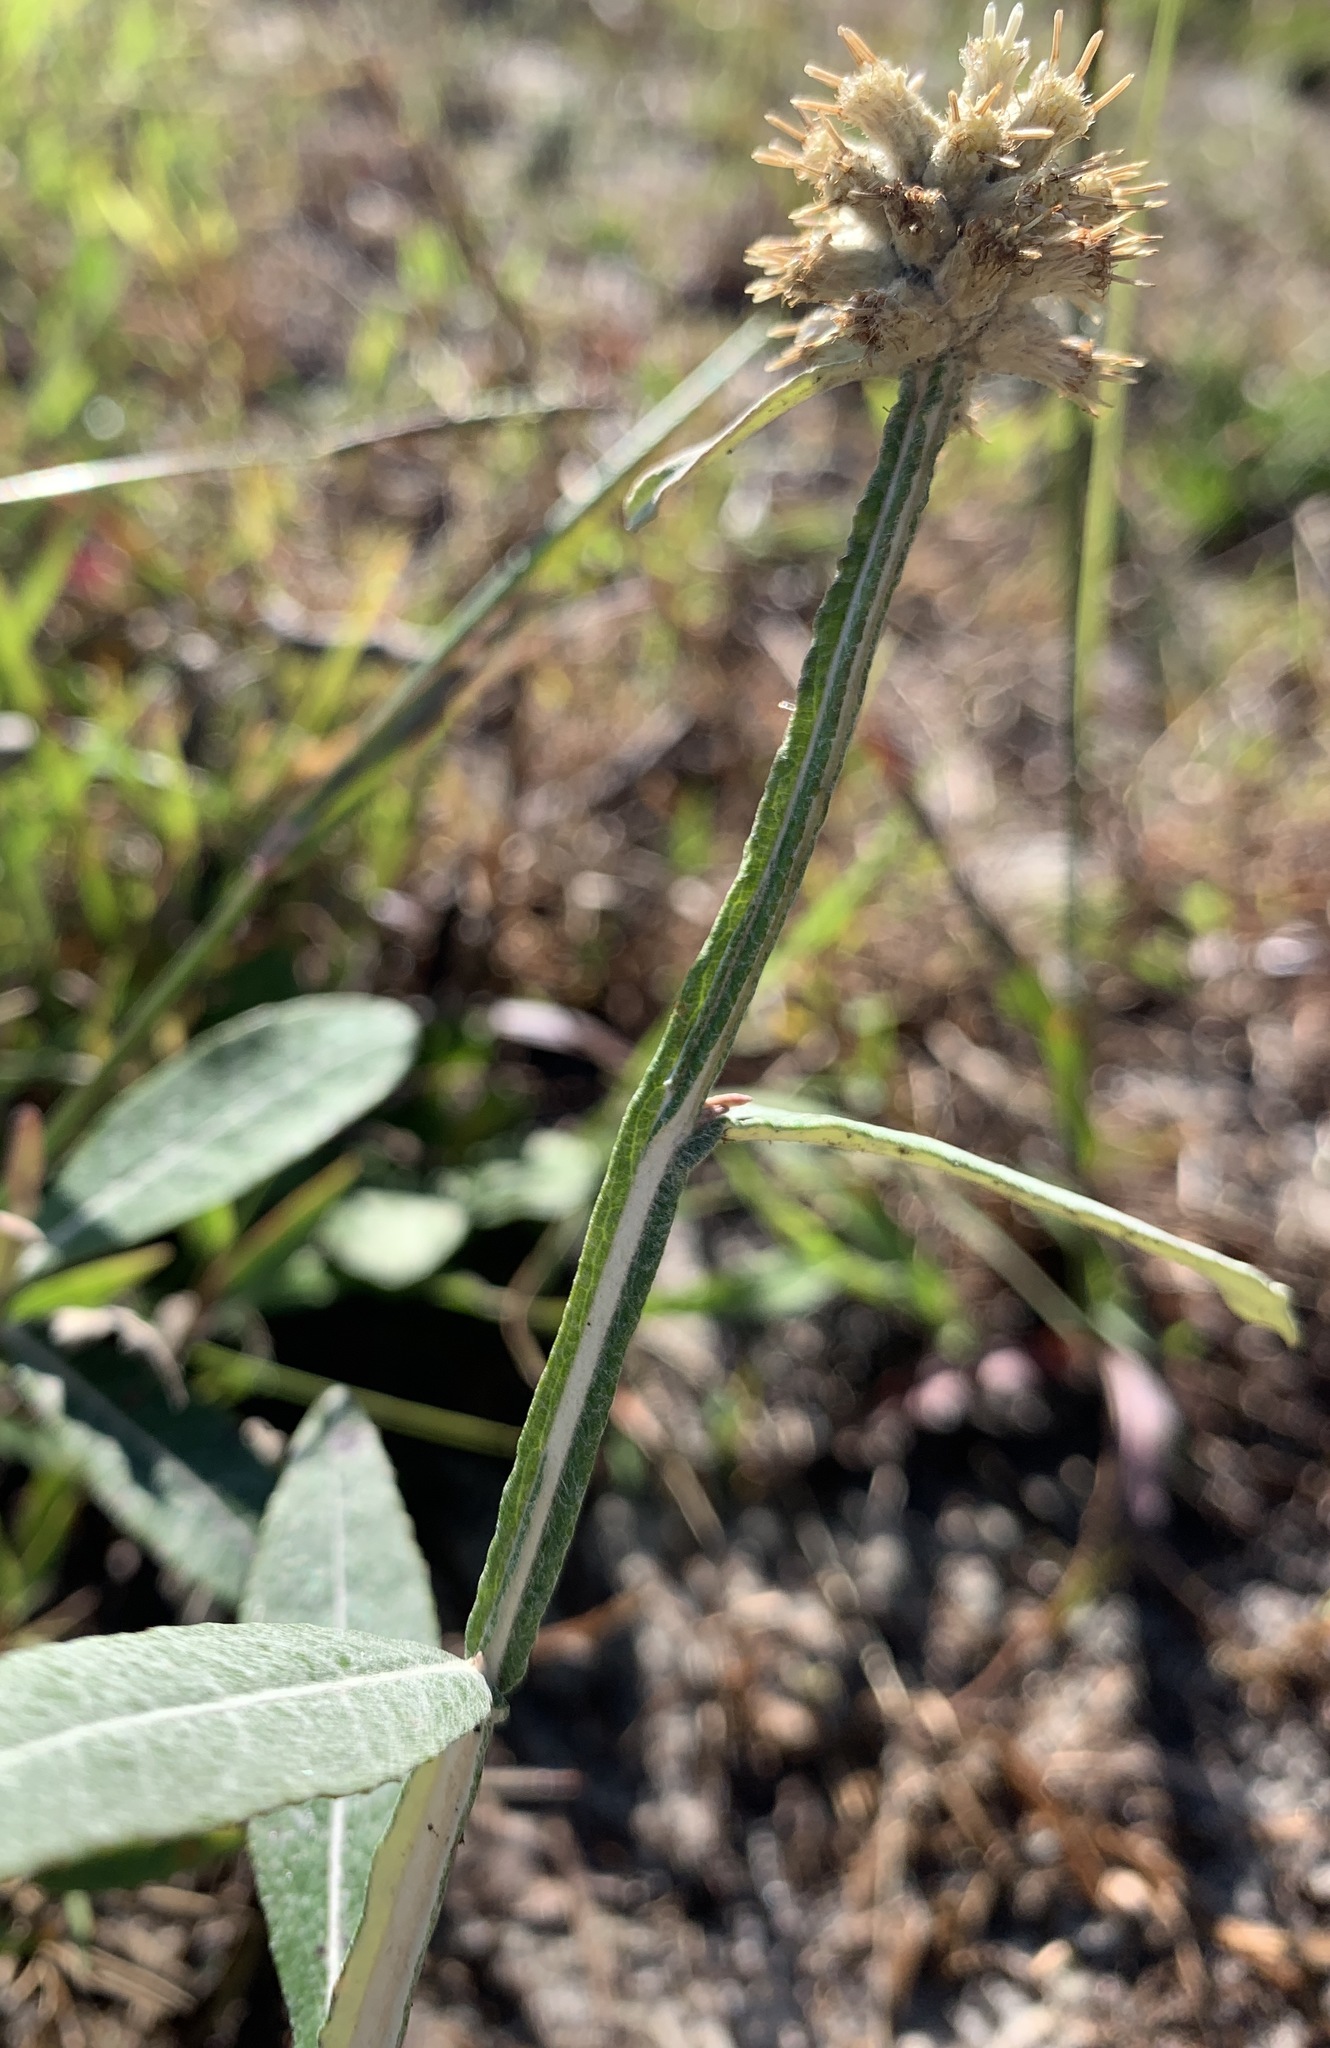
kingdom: Plantae
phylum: Tracheophyta
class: Magnoliopsida
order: Asterales
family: Asteraceae
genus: Pterocaulon
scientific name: Pterocaulon pycnostachyum
